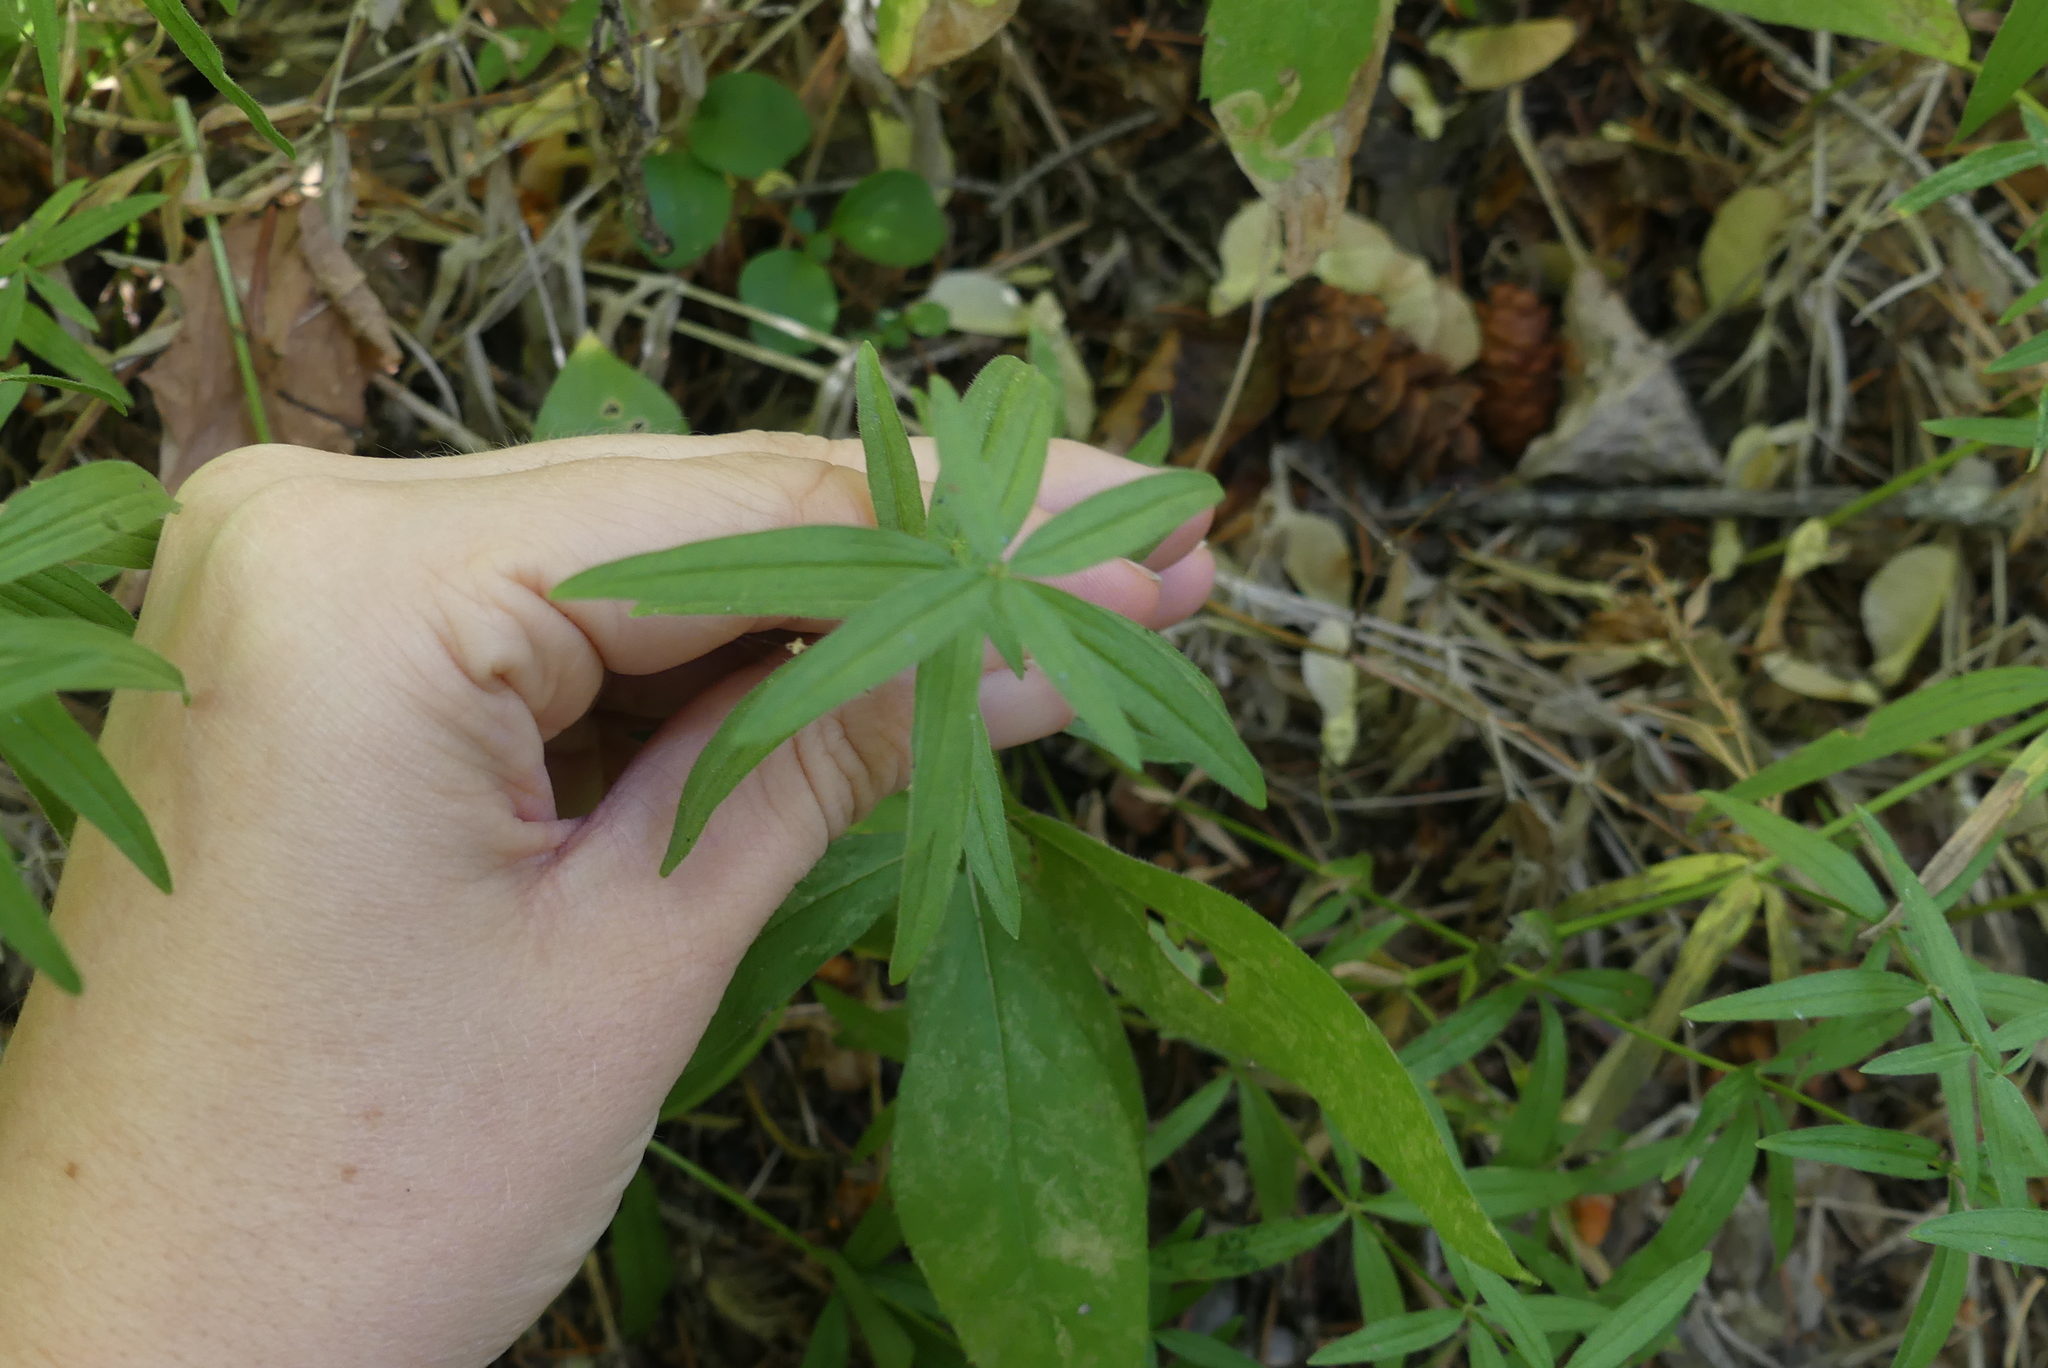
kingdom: Plantae
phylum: Tracheophyta
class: Magnoliopsida
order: Gentianales
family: Rubiaceae
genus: Galium
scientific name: Galium boreale
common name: Northern bedstraw
